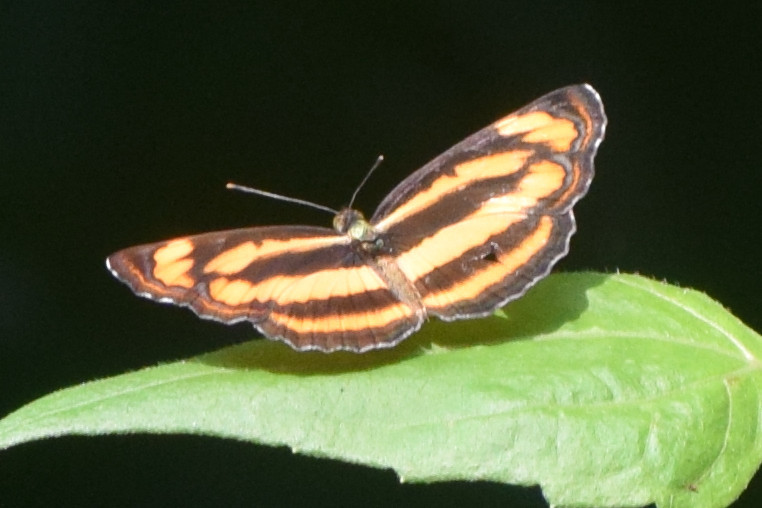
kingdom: Animalia
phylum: Arthropoda
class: Insecta
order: Lepidoptera
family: Nymphalidae
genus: Pantoporia
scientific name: Pantoporia hordonia
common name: Common lascar
